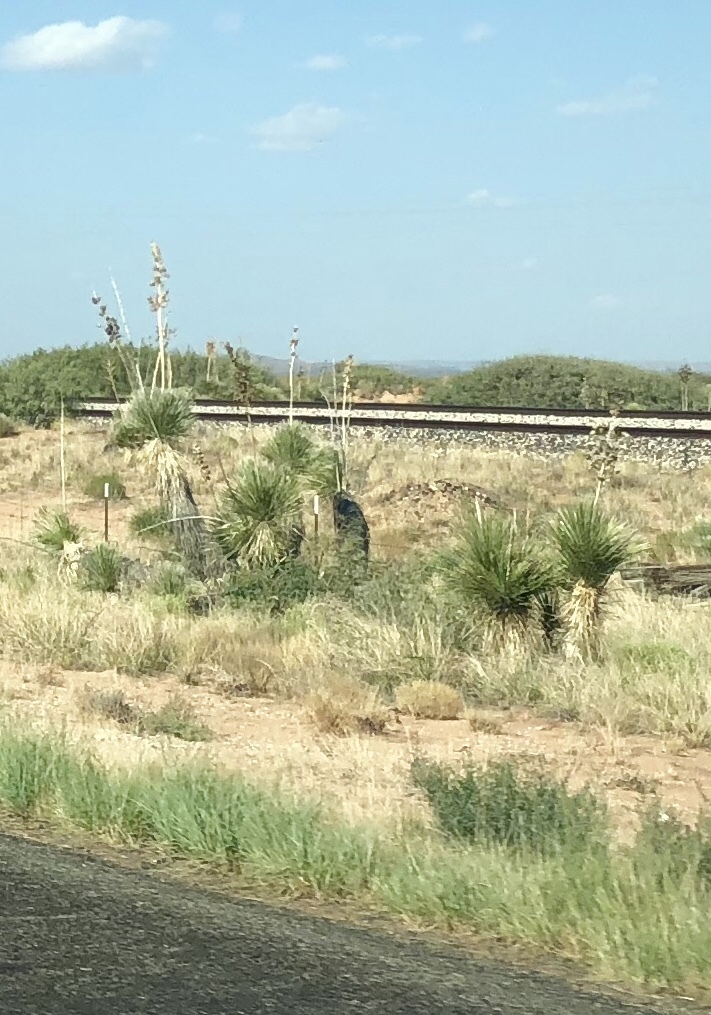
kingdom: Plantae
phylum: Tracheophyta
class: Liliopsida
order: Asparagales
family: Asparagaceae
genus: Yucca
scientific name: Yucca elata
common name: Palmella
